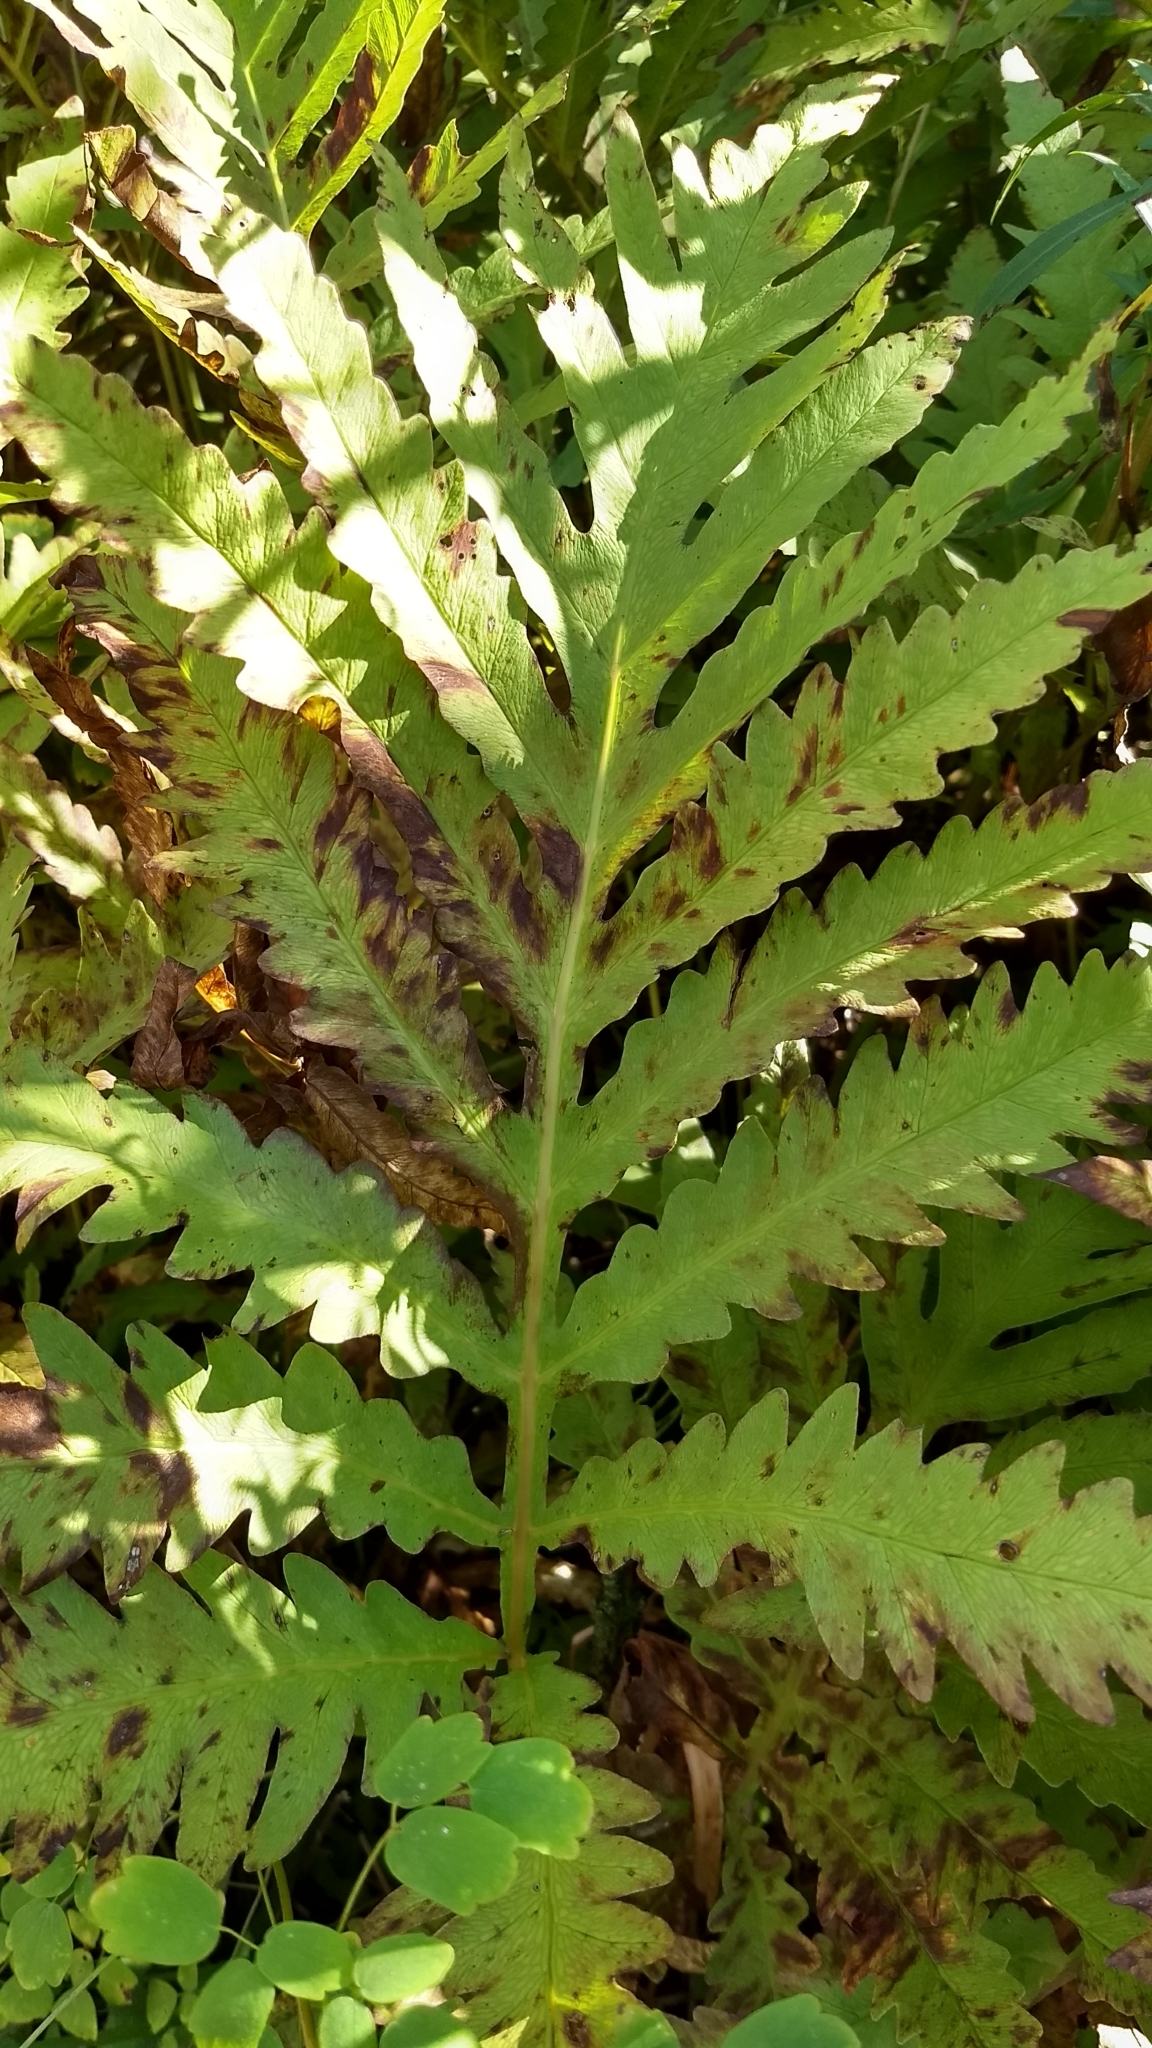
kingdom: Plantae
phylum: Tracheophyta
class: Polypodiopsida
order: Polypodiales
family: Onocleaceae
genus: Onoclea
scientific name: Onoclea sensibilis
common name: Sensitive fern
